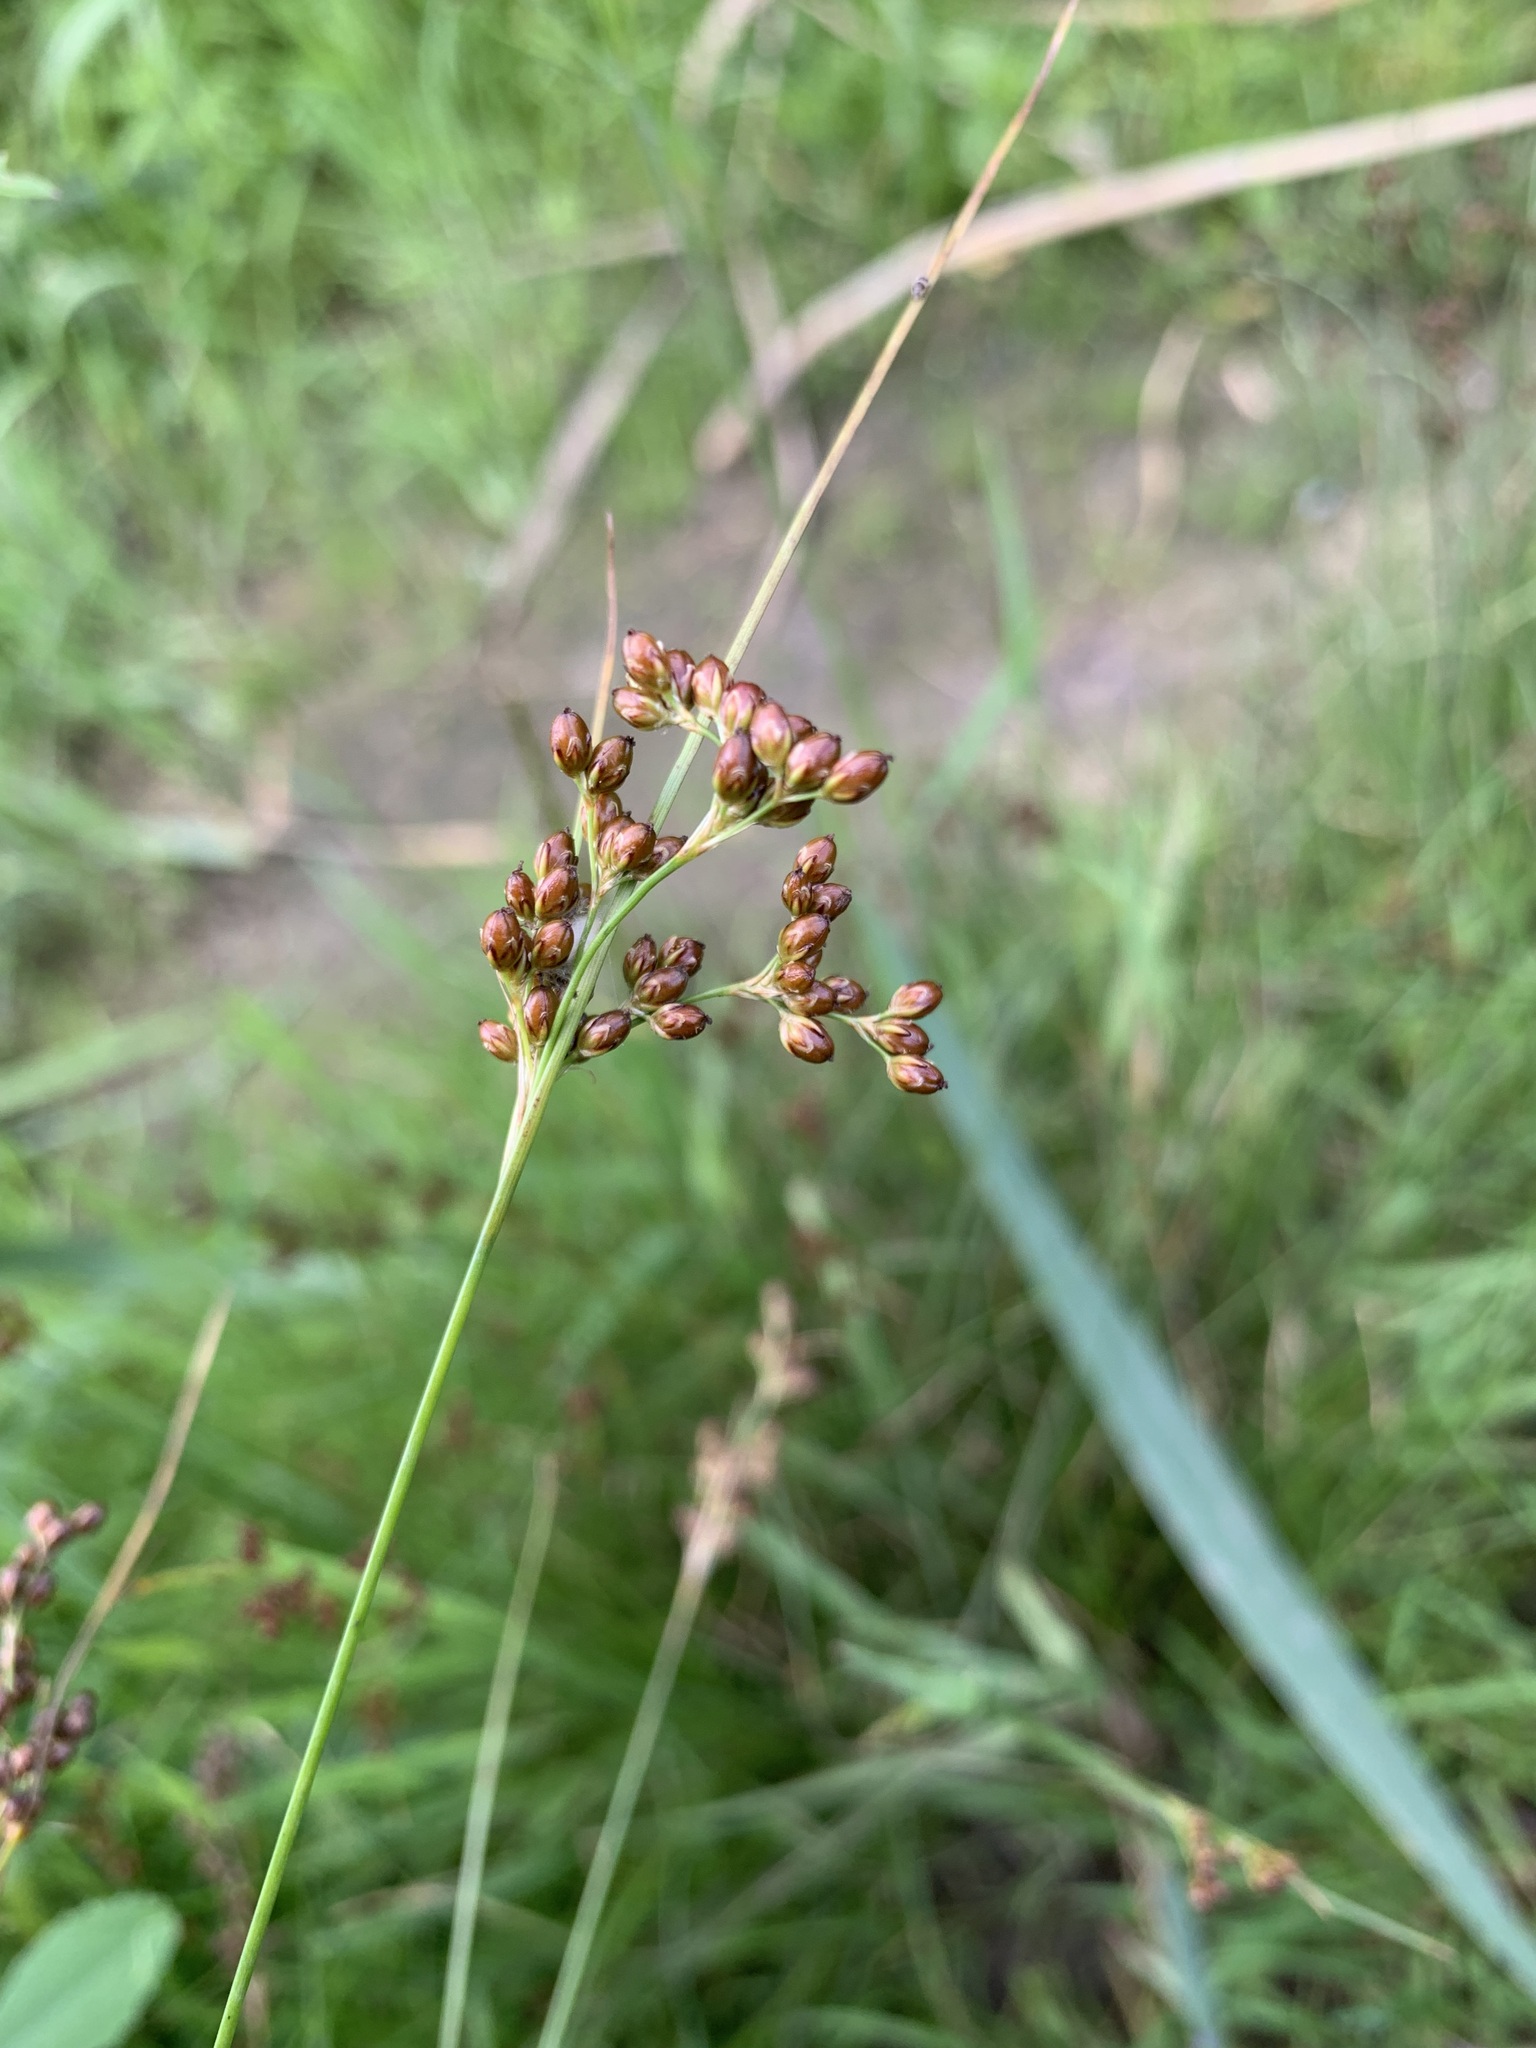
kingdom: Plantae
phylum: Tracheophyta
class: Liliopsida
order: Poales
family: Juncaceae
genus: Juncus
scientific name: Juncus compressus
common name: Round-fruited rush
